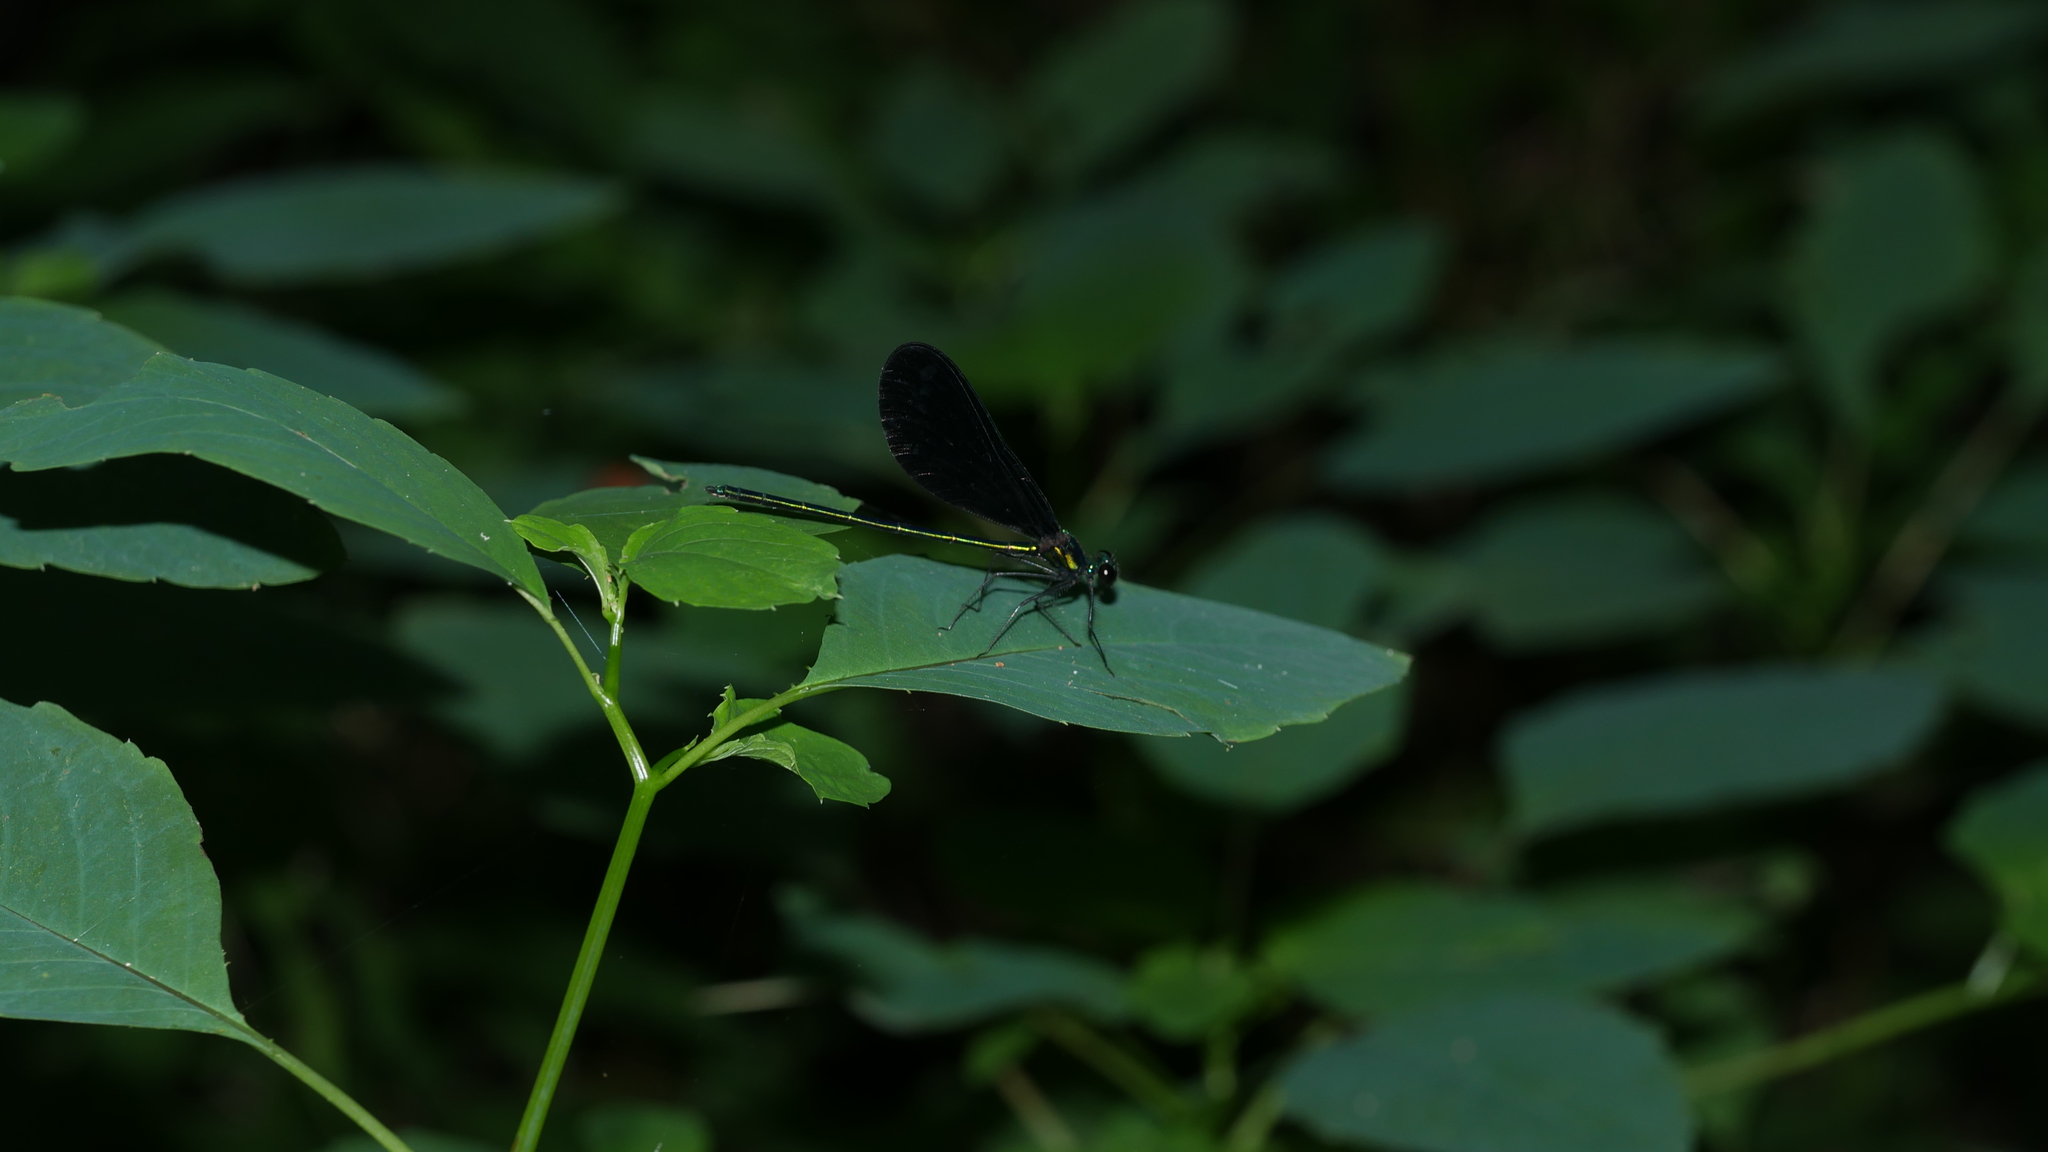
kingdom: Animalia
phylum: Arthropoda
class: Insecta
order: Odonata
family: Calopterygidae
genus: Calopteryx
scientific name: Calopteryx maculata
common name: Ebony jewelwing
